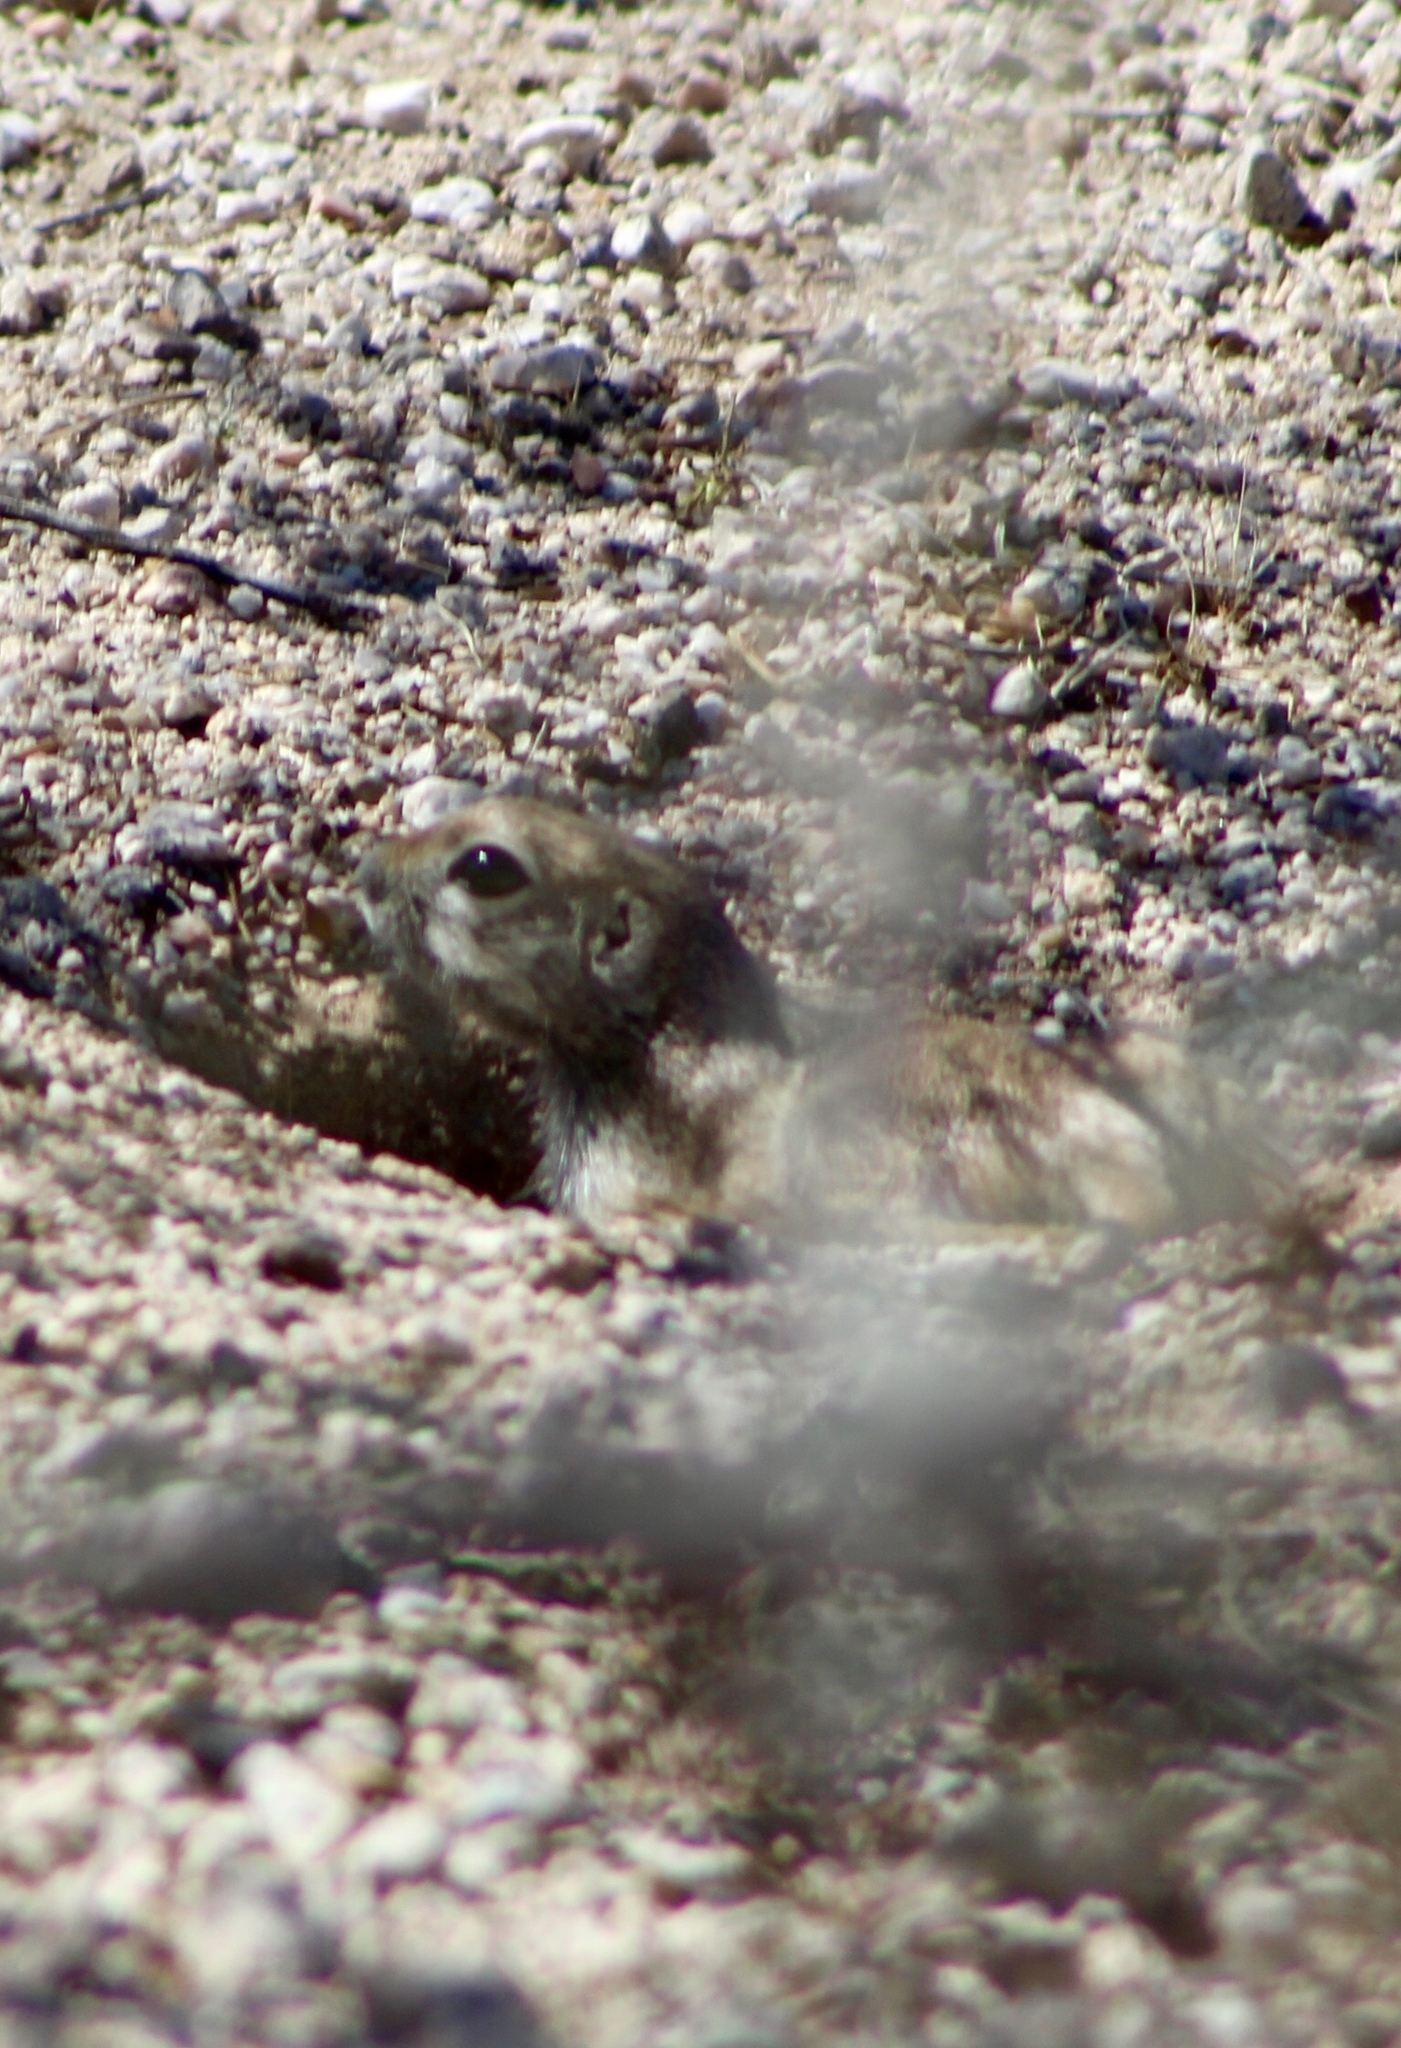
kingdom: Animalia
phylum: Chordata
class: Mammalia
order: Rodentia
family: Sciuridae
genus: Xerospermophilus
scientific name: Xerospermophilus tereticaudus
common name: Round-tailed ground squirrel
